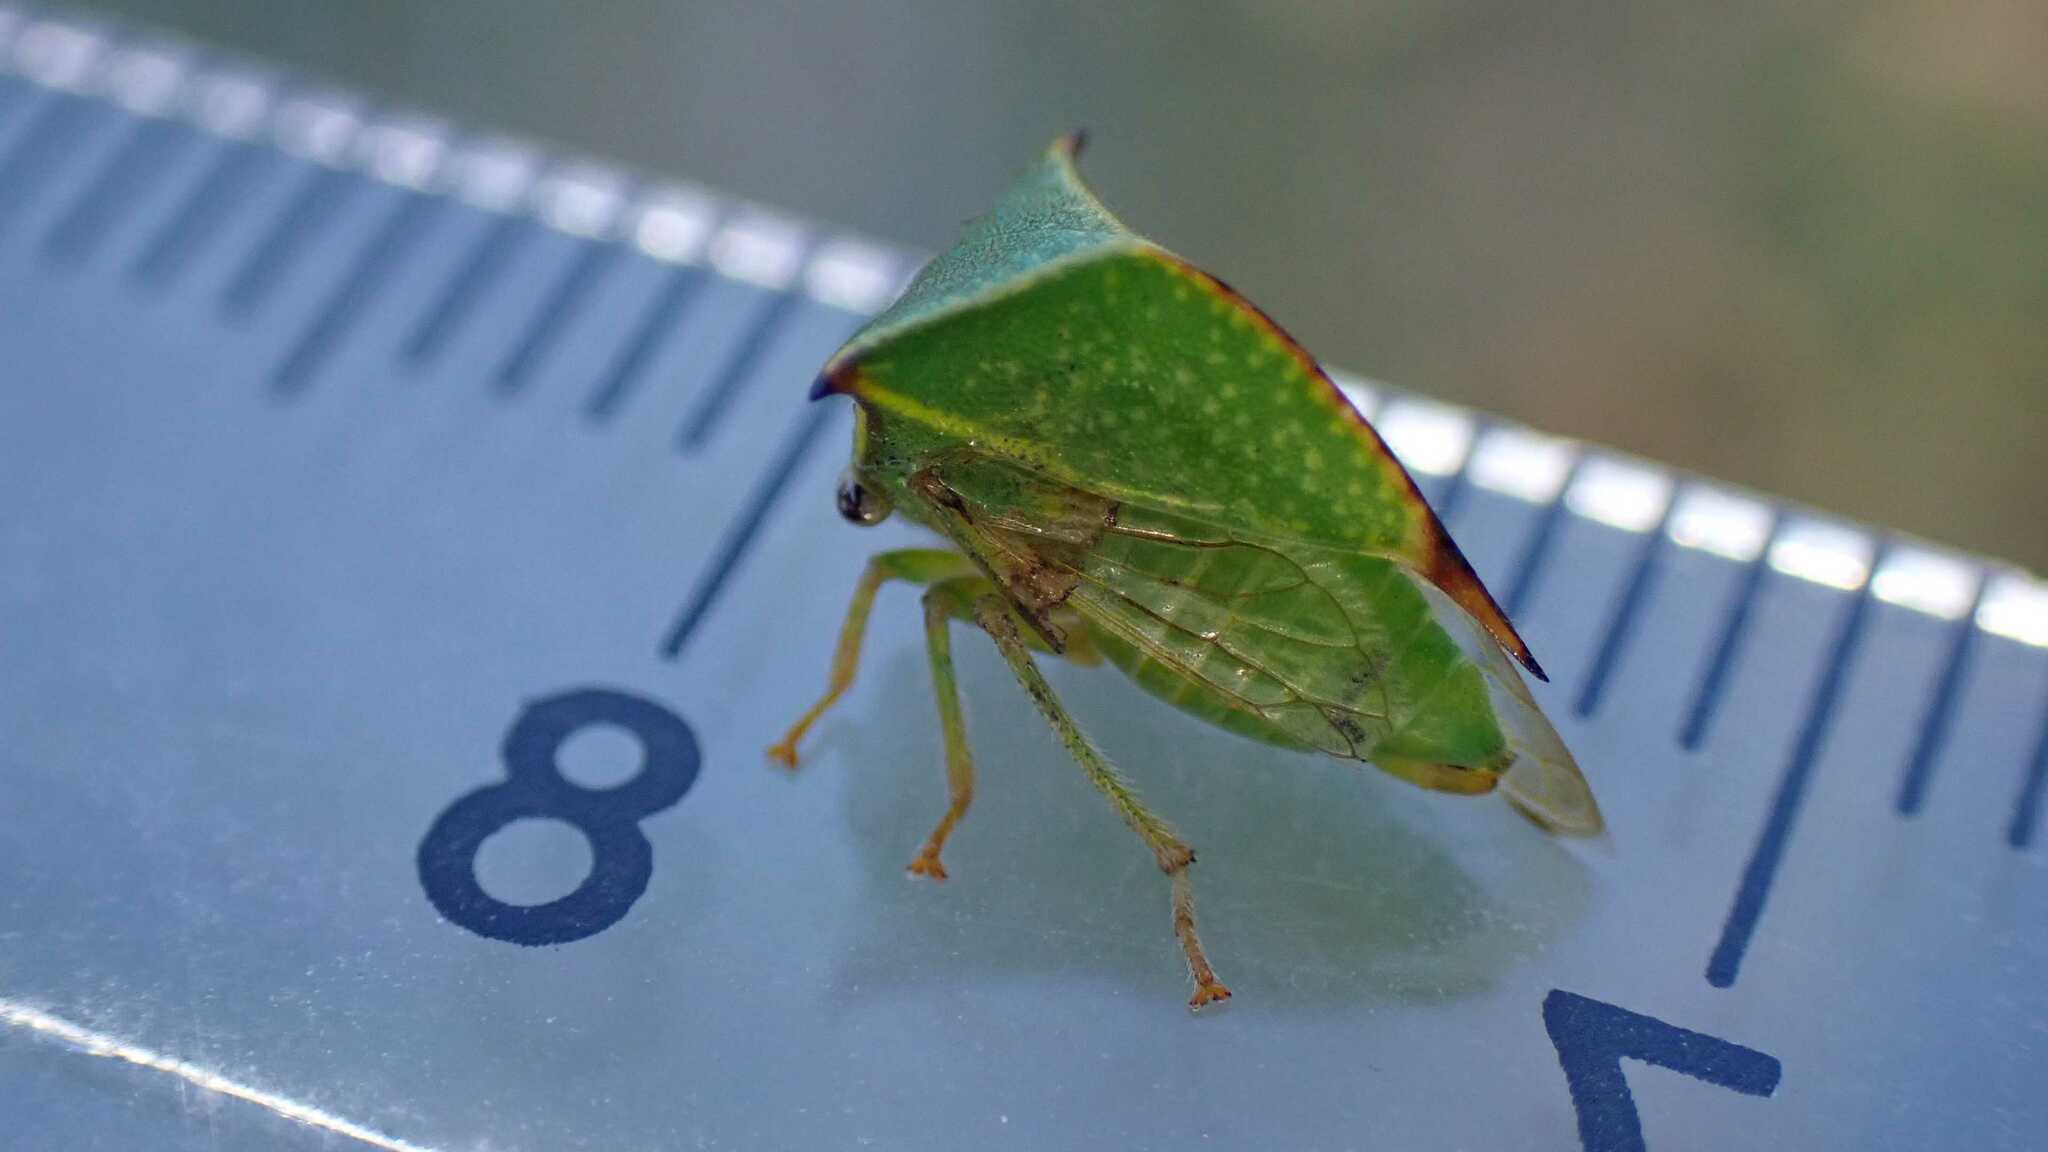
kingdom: Animalia
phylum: Arthropoda
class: Insecta
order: Hemiptera
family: Membracidae
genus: Stictocephala
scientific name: Stictocephala bisonia
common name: American buffalo treehopper
